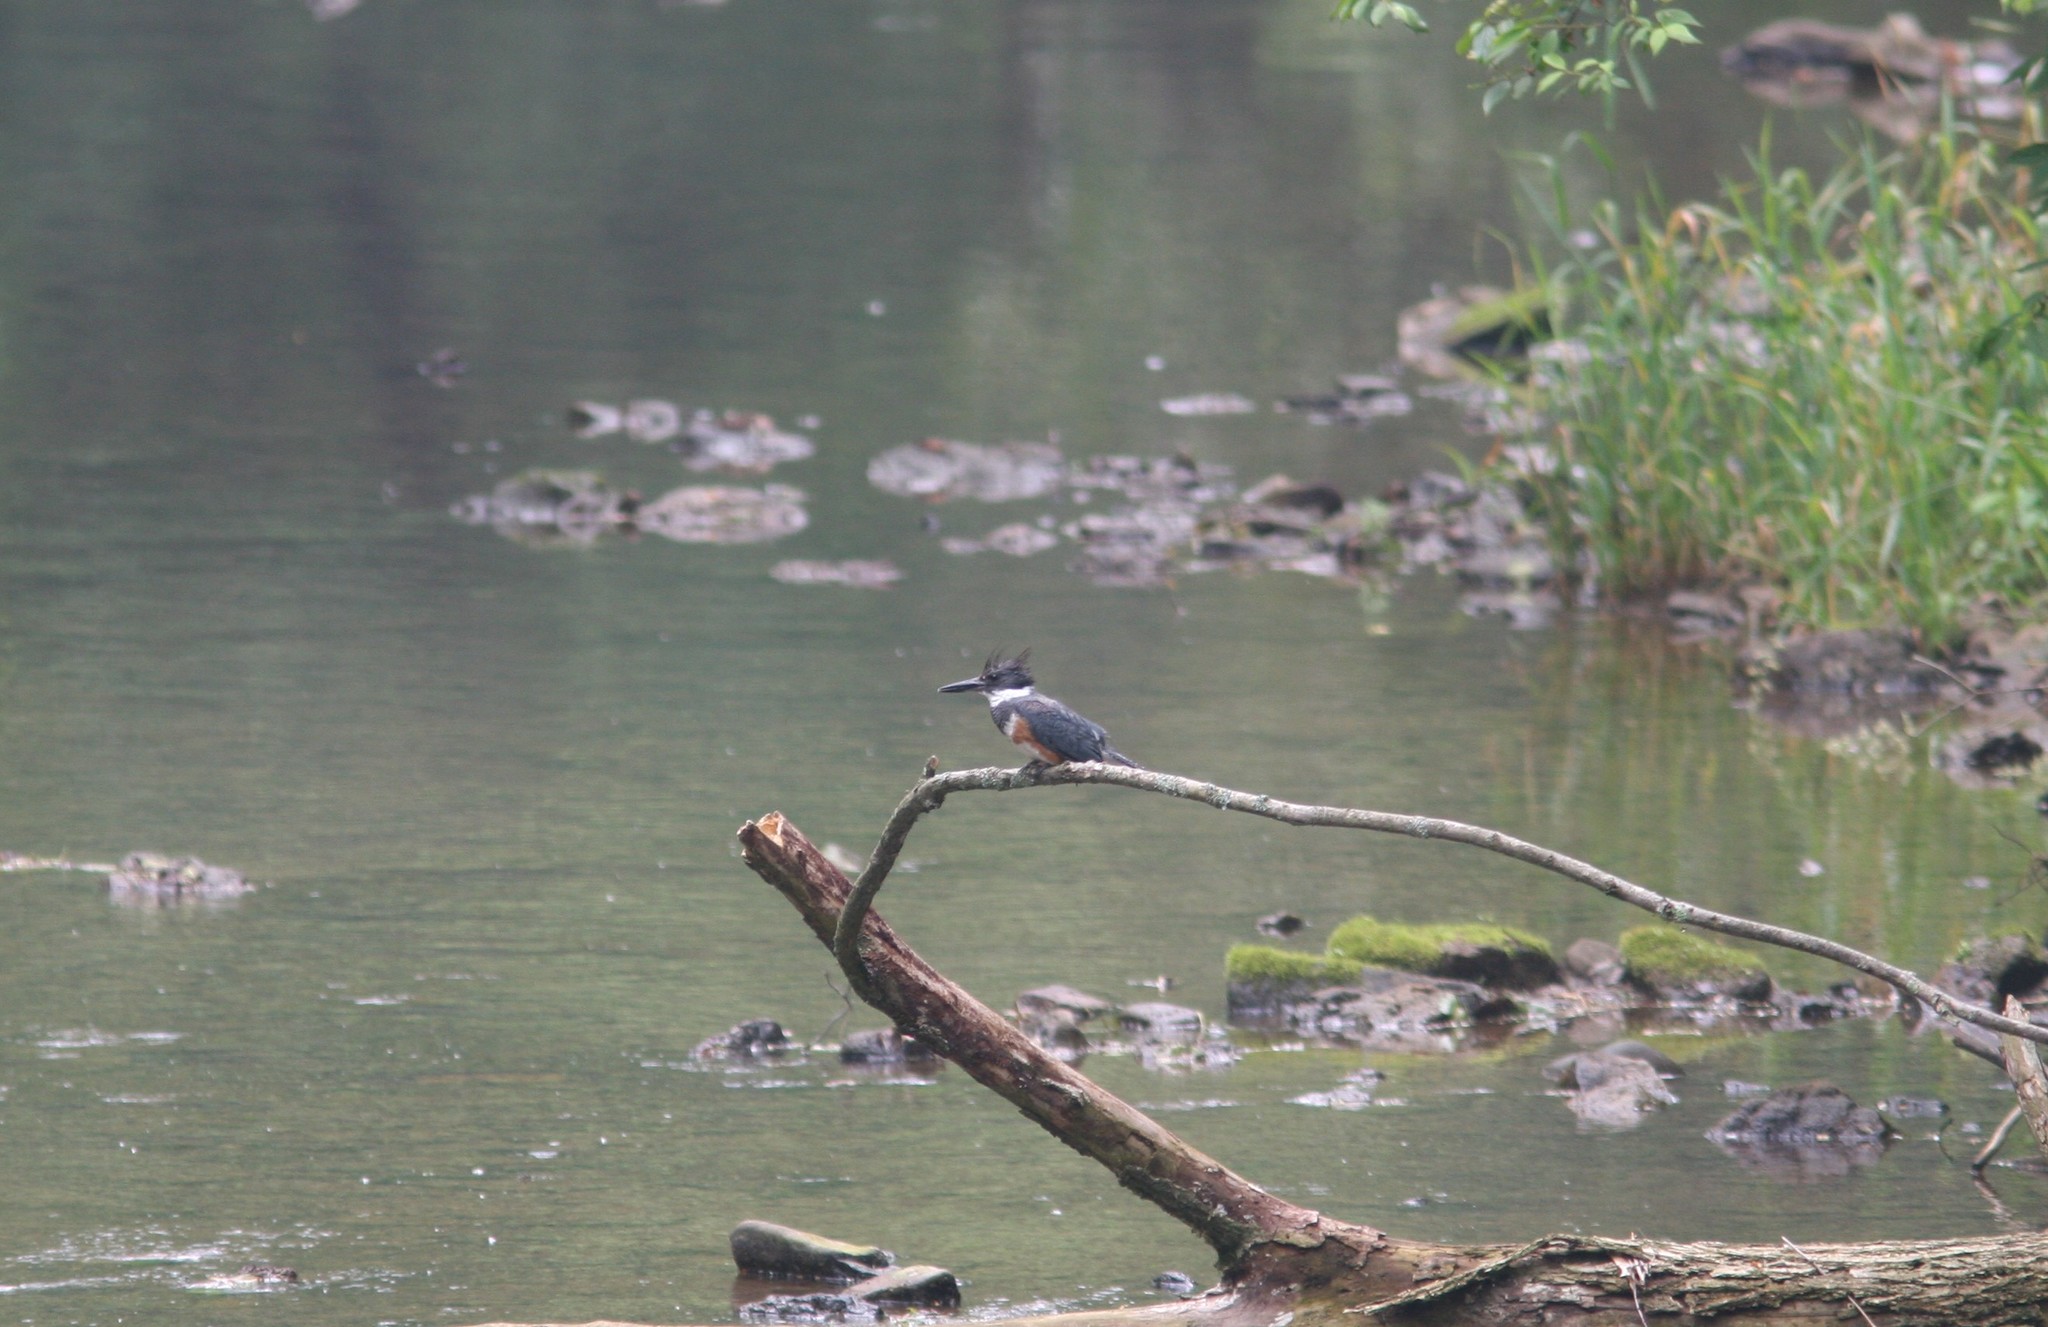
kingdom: Animalia
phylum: Chordata
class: Aves
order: Coraciiformes
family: Alcedinidae
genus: Megaceryle
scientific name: Megaceryle alcyon
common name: Belted kingfisher
